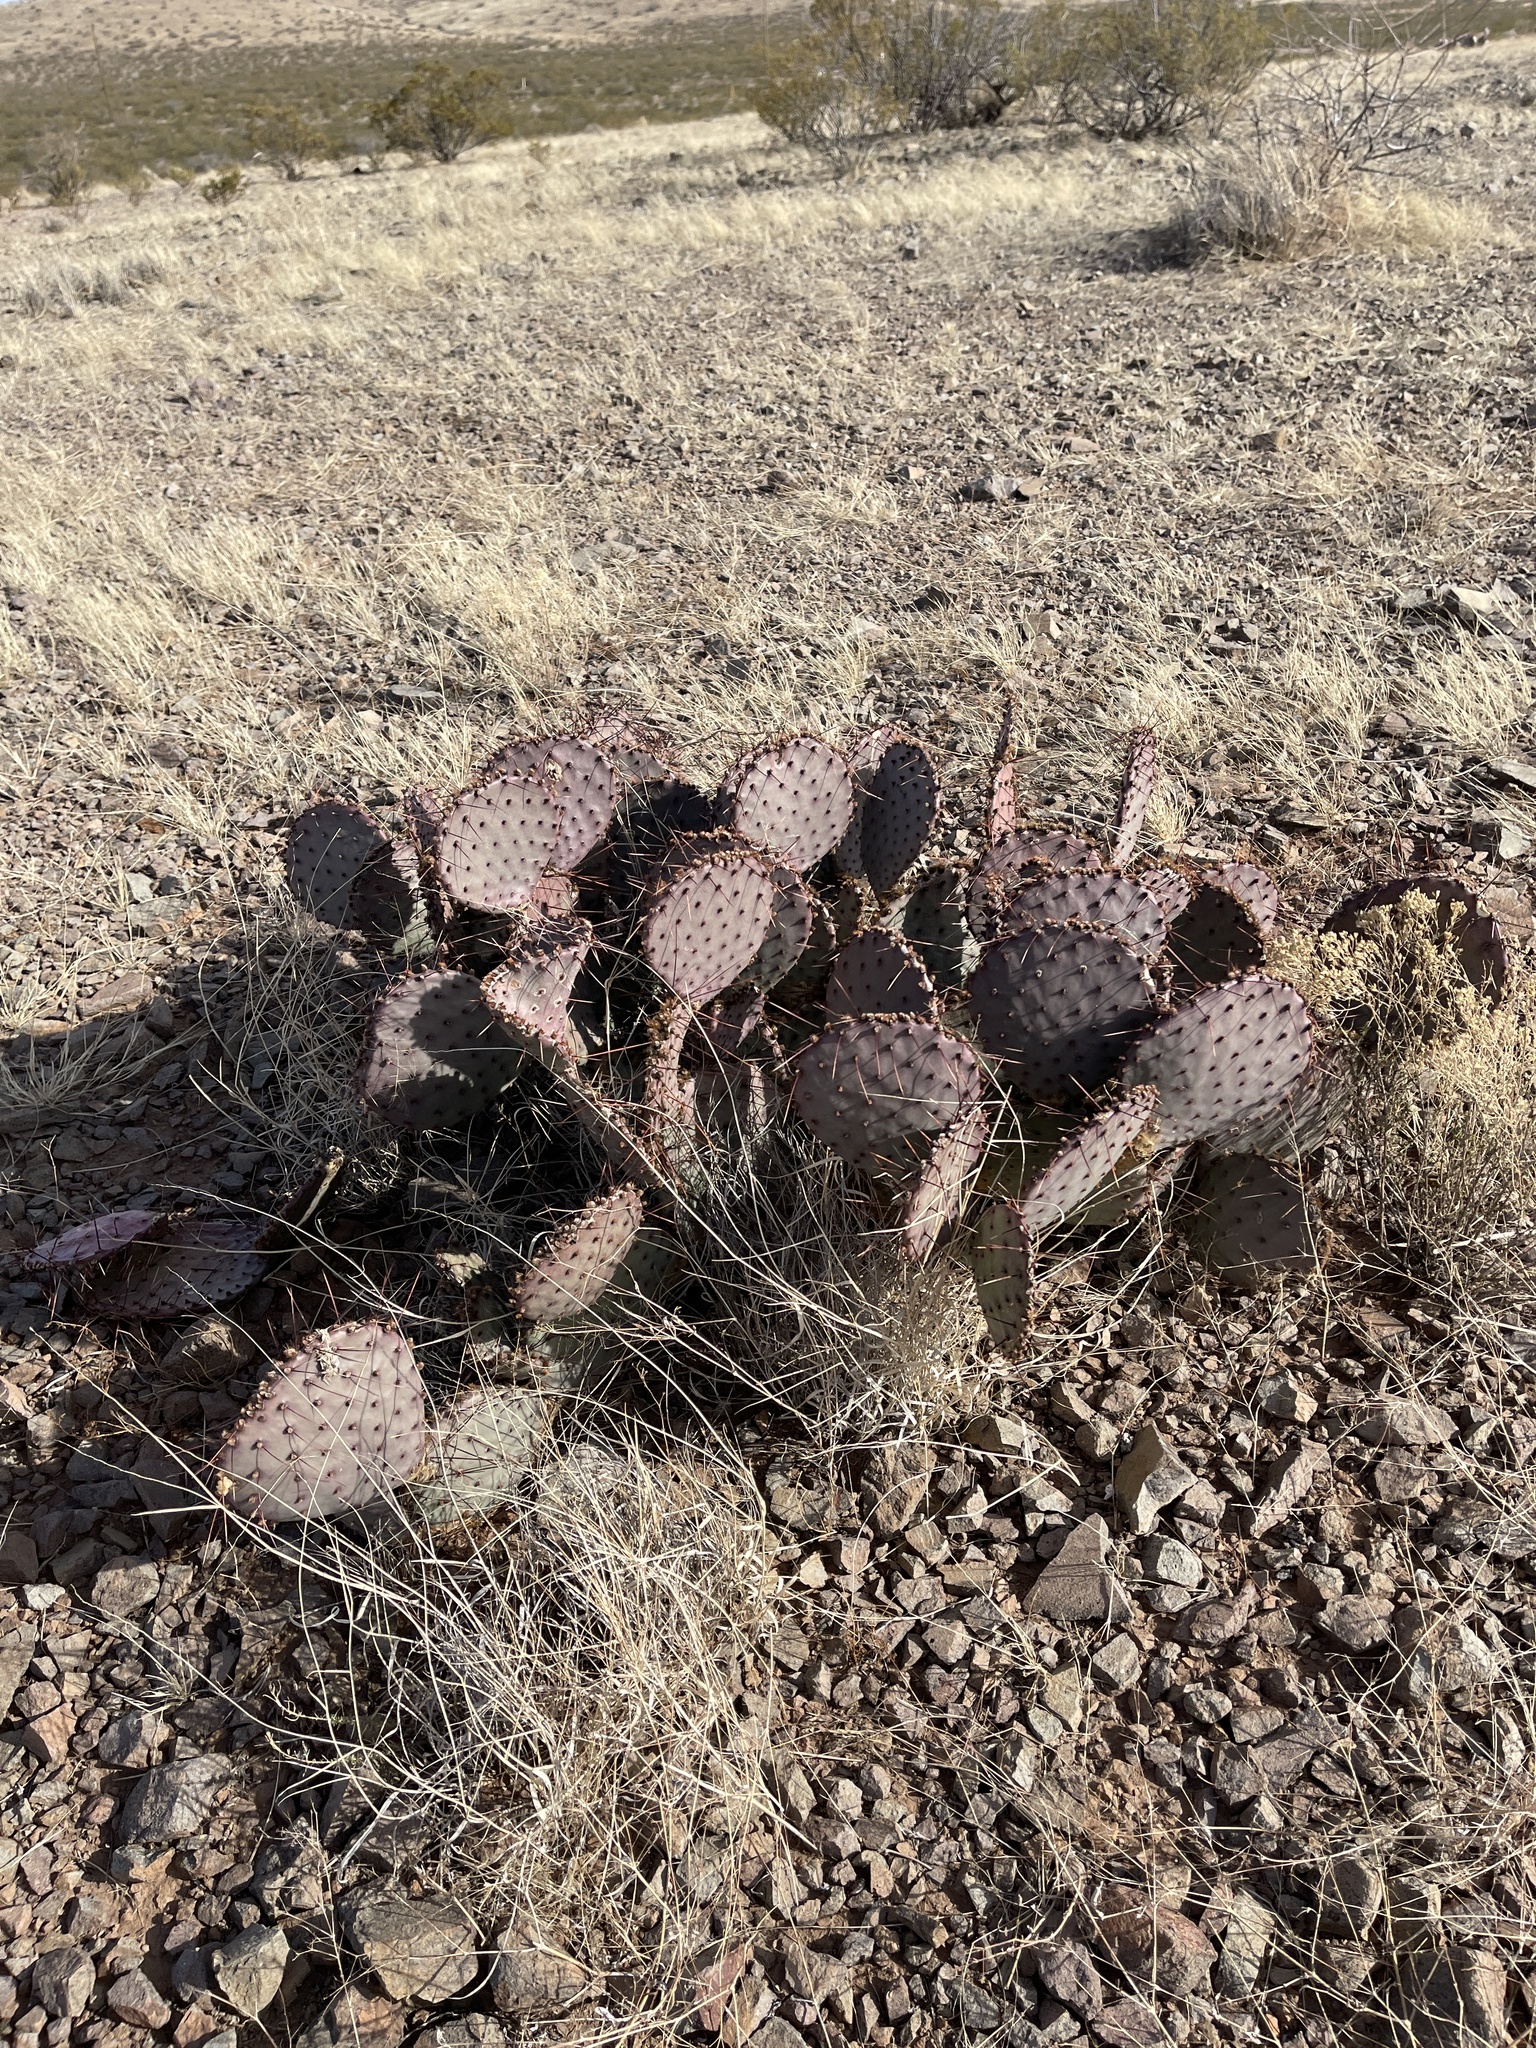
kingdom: Plantae
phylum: Tracheophyta
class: Magnoliopsida
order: Caryophyllales
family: Cactaceae
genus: Opuntia
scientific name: Opuntia macrocentra
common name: Purple prickly-pear
